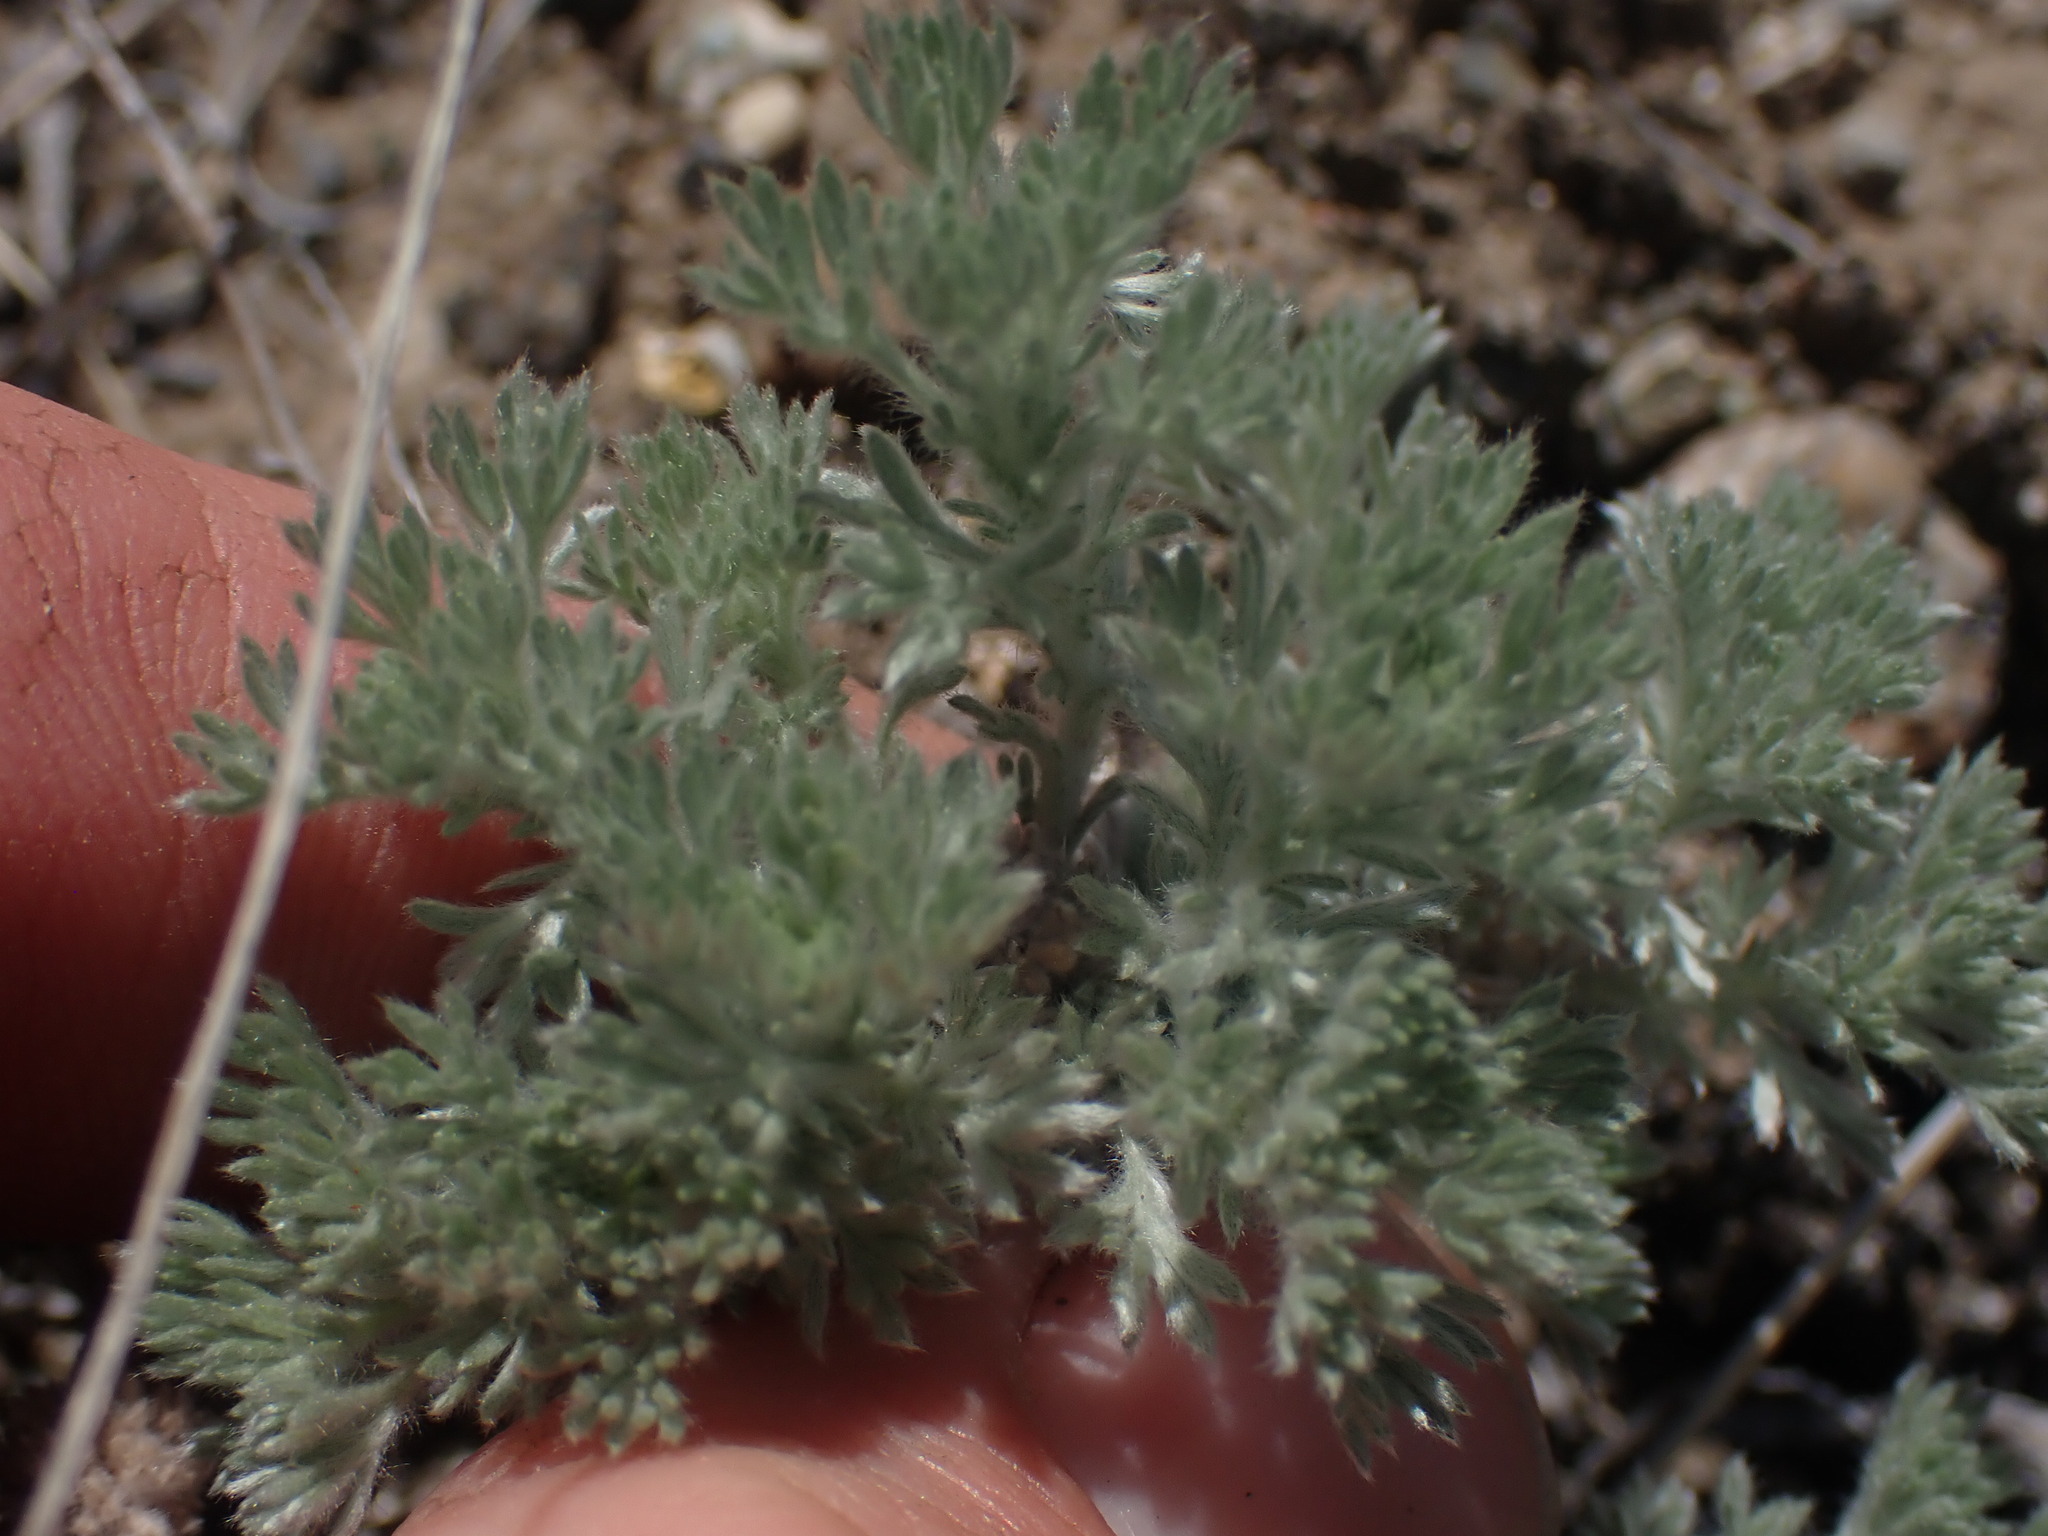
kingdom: Plantae
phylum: Tracheophyta
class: Magnoliopsida
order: Asterales
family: Asteraceae
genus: Artemisia
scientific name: Artemisia frigida
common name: Prairie sagewort
